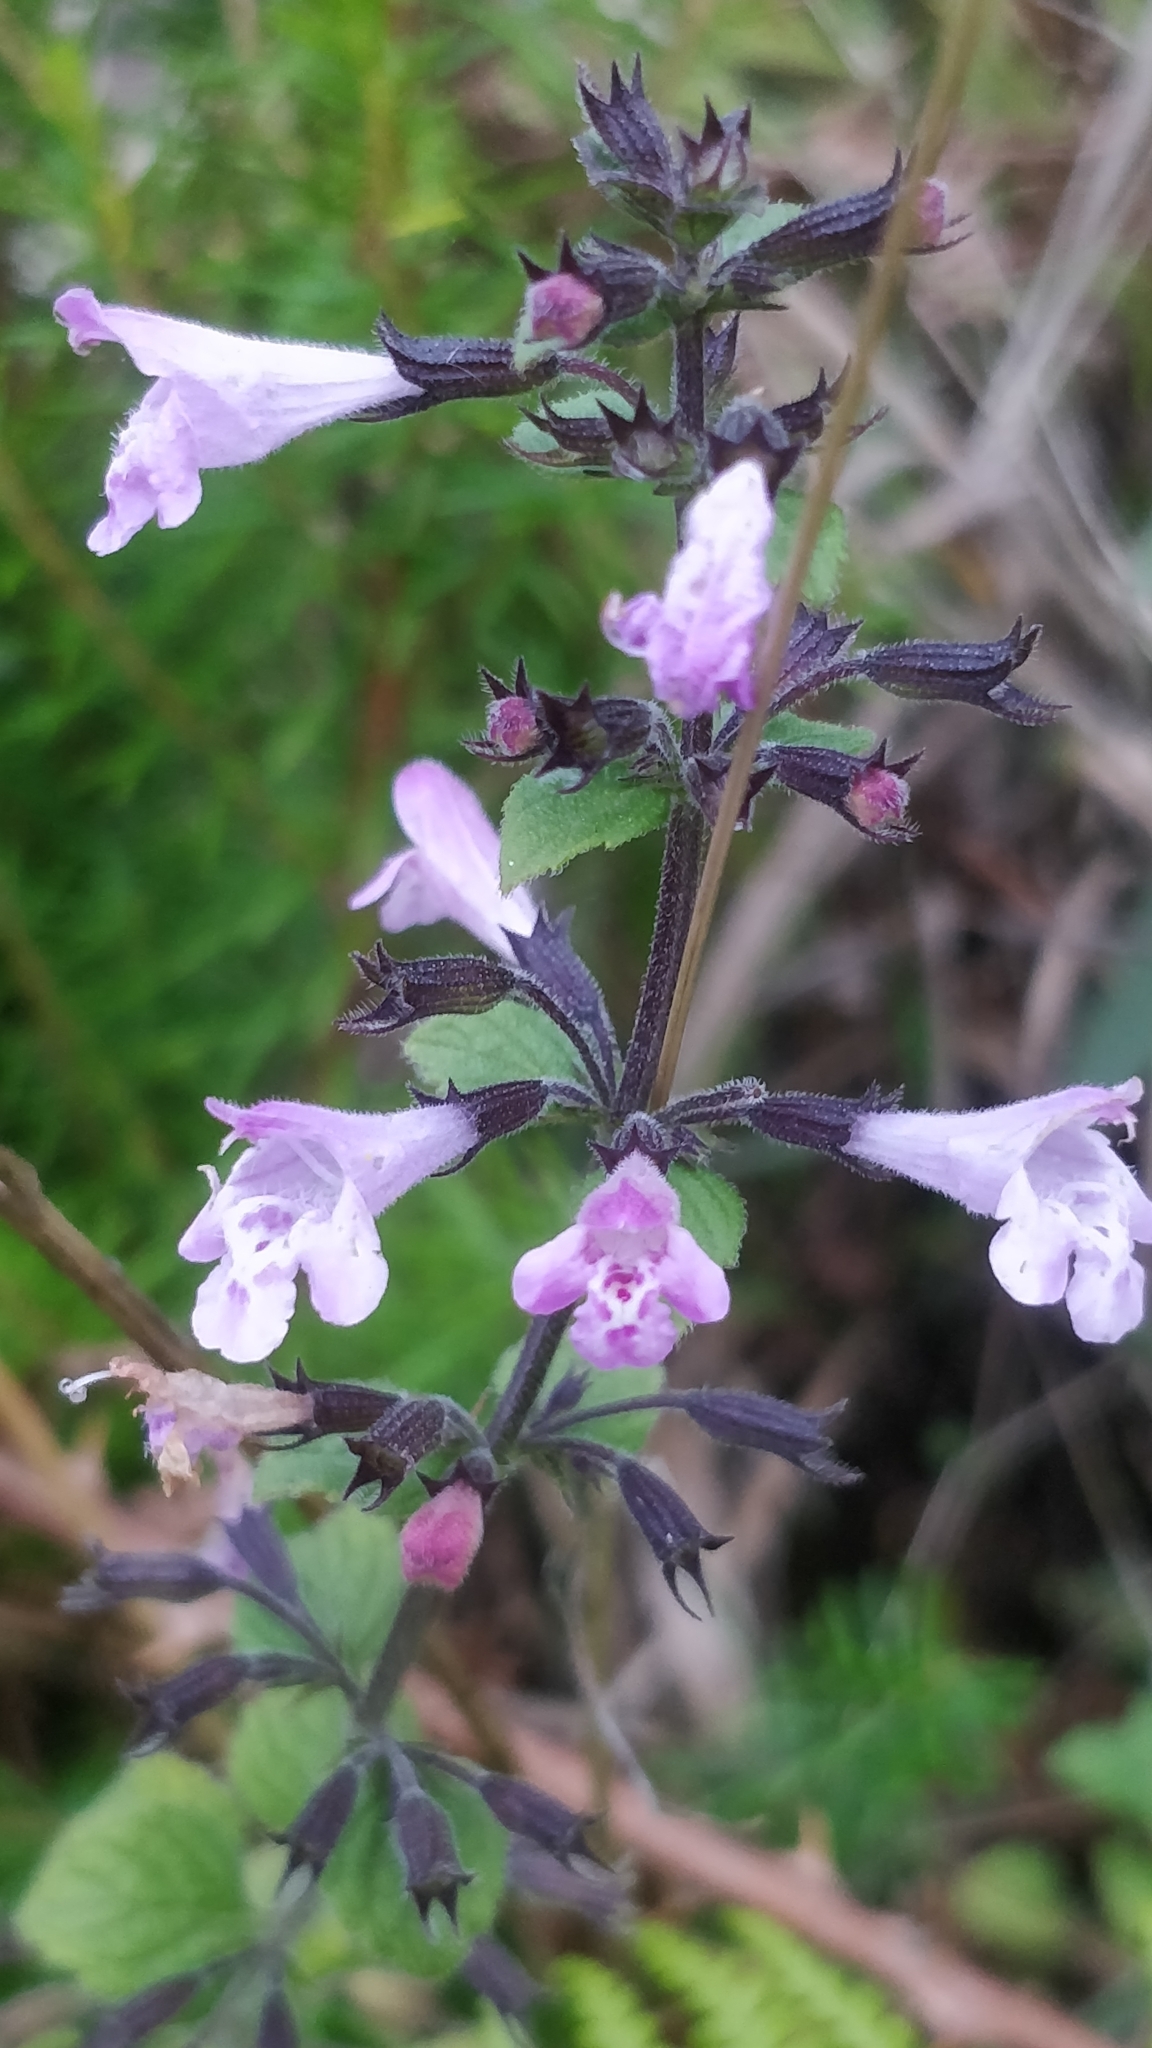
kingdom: Plantae
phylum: Tracheophyta
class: Magnoliopsida
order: Lamiales
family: Lamiaceae
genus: Clinopodium
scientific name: Clinopodium menthifolium
